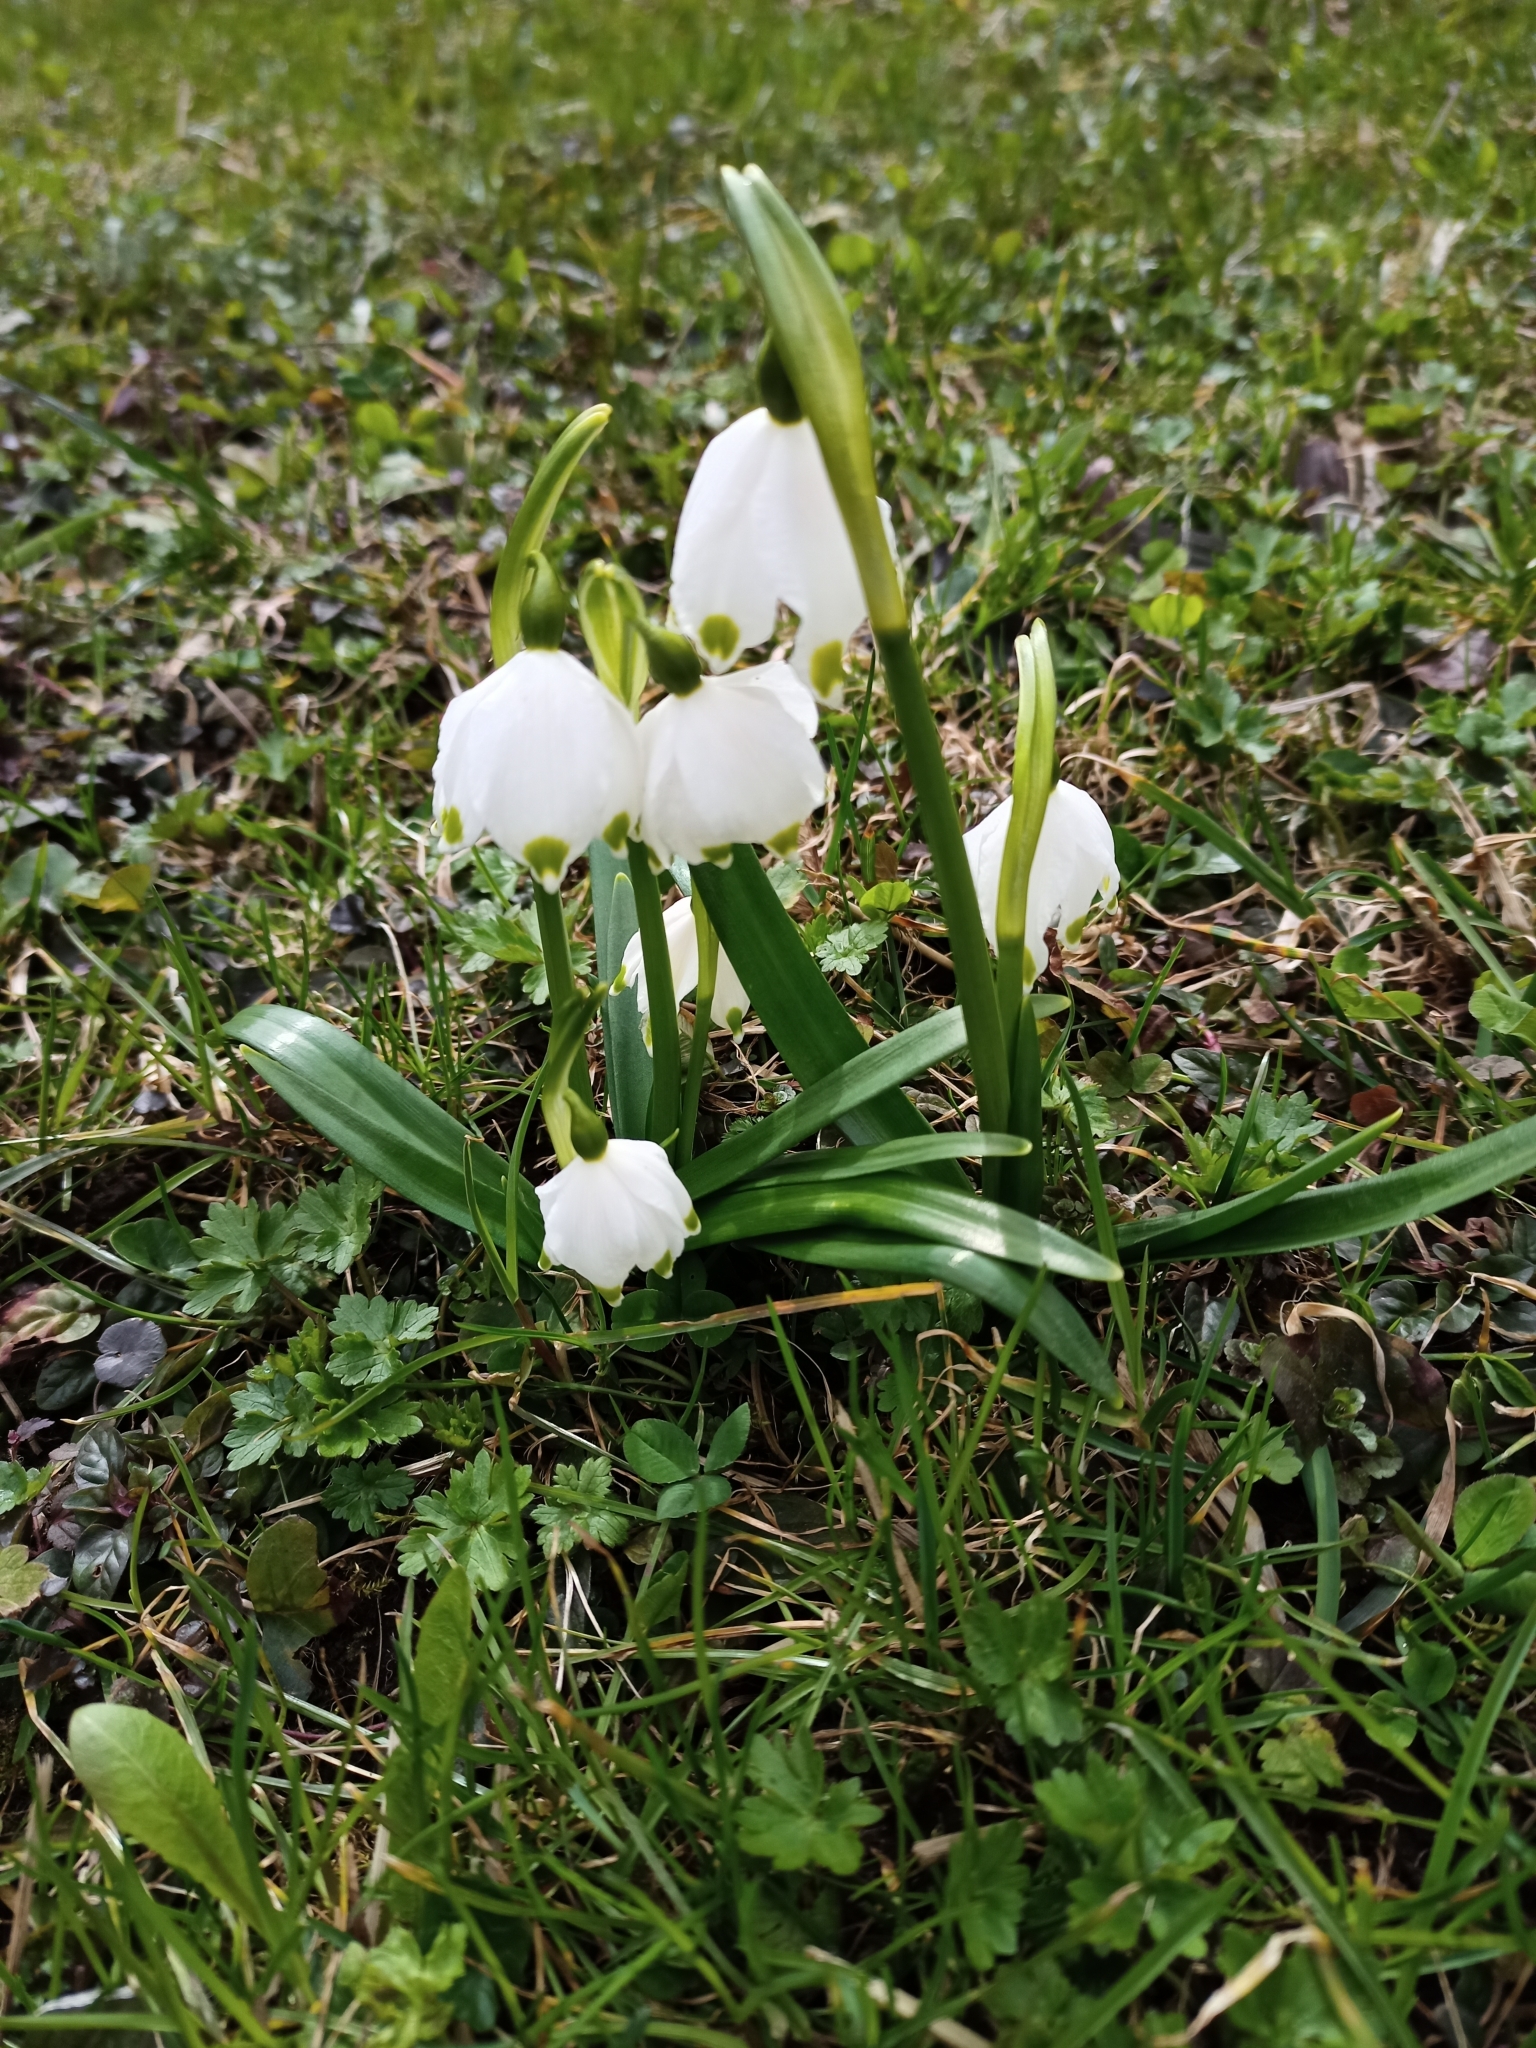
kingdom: Plantae
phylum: Tracheophyta
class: Liliopsida
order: Asparagales
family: Amaryllidaceae
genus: Leucojum
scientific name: Leucojum vernum
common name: Spring snowflake
